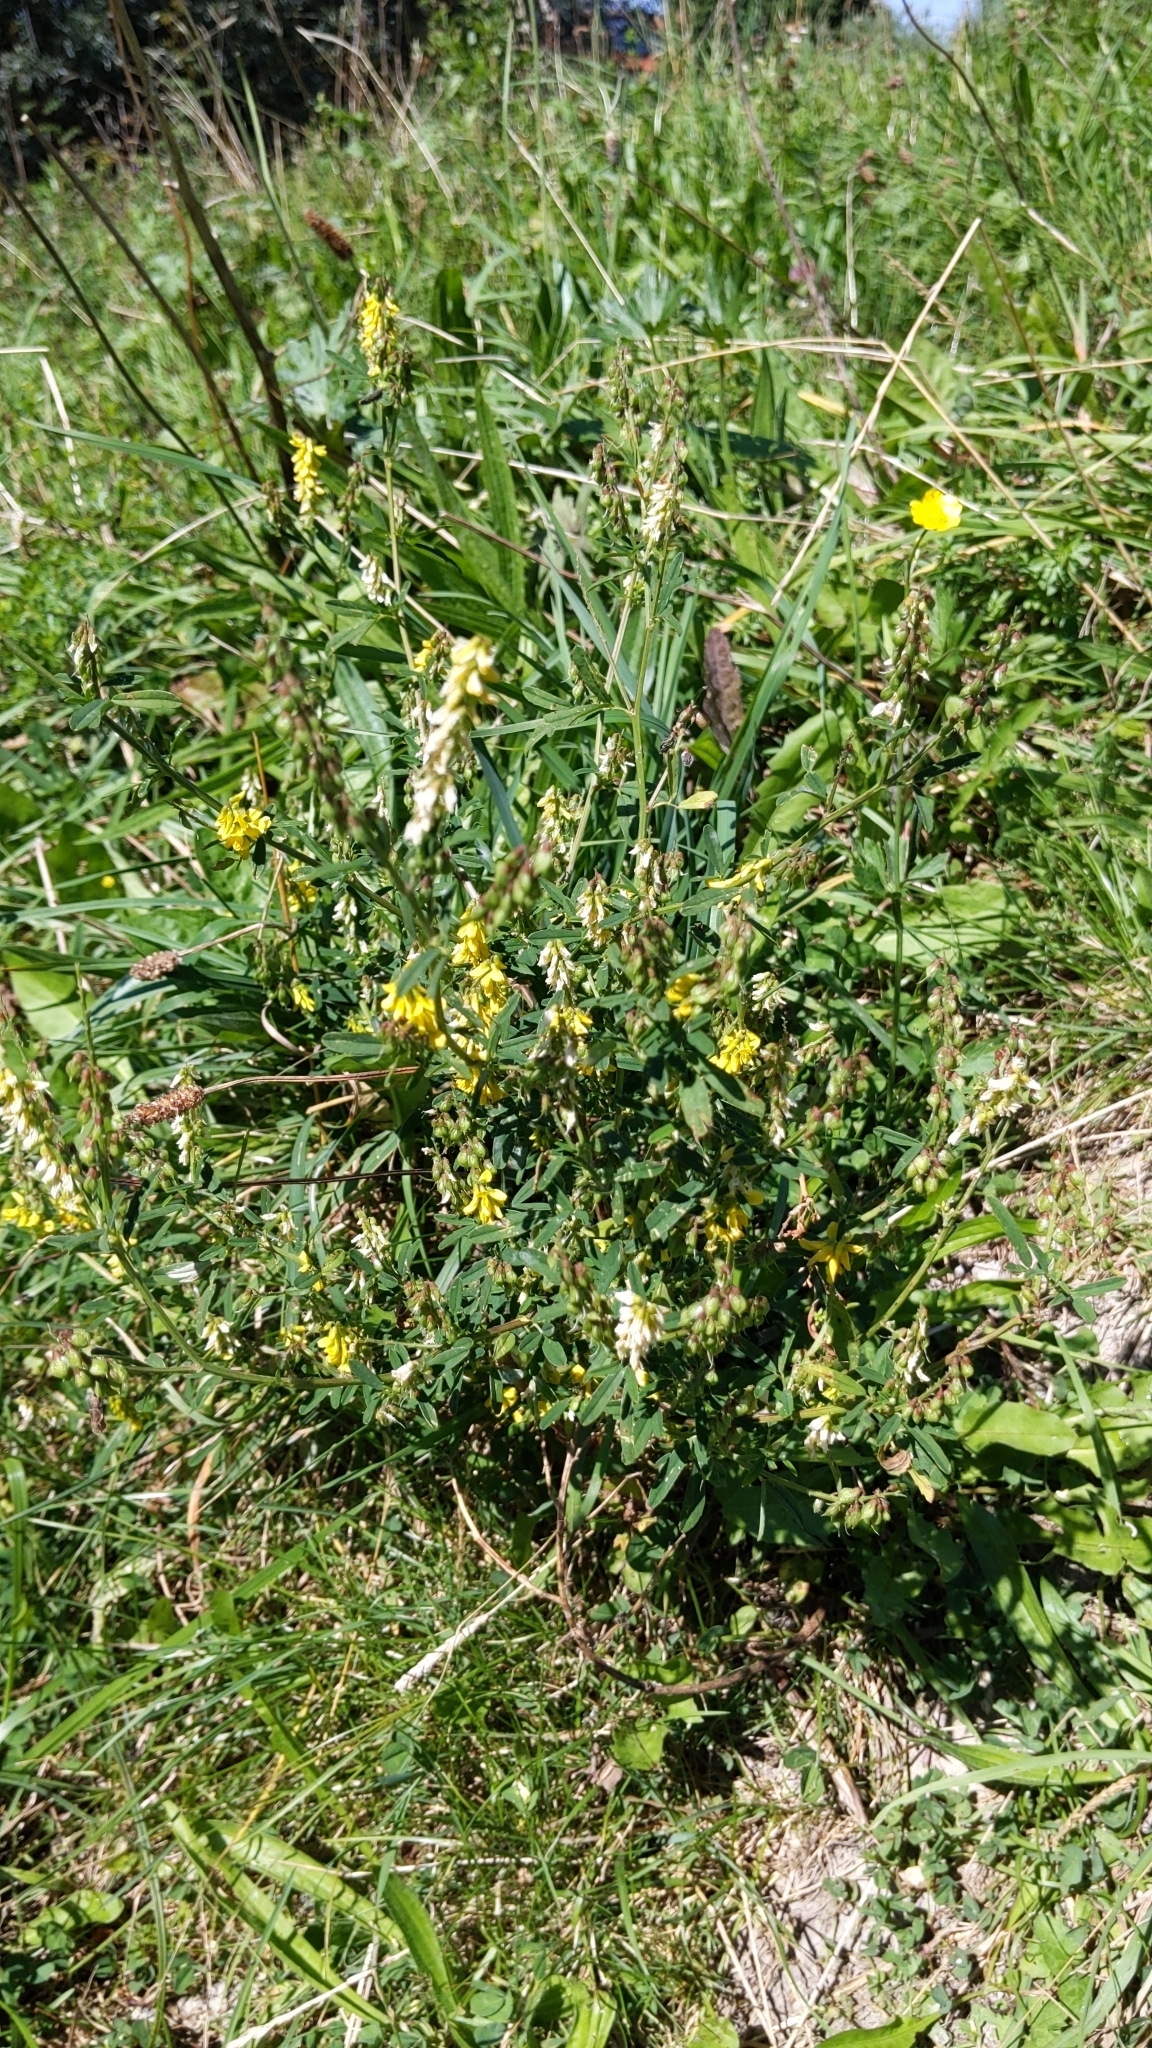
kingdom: Plantae
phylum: Tracheophyta
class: Magnoliopsida
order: Fabales
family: Fabaceae
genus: Melilotus
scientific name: Melilotus officinalis
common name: Sweetclover
